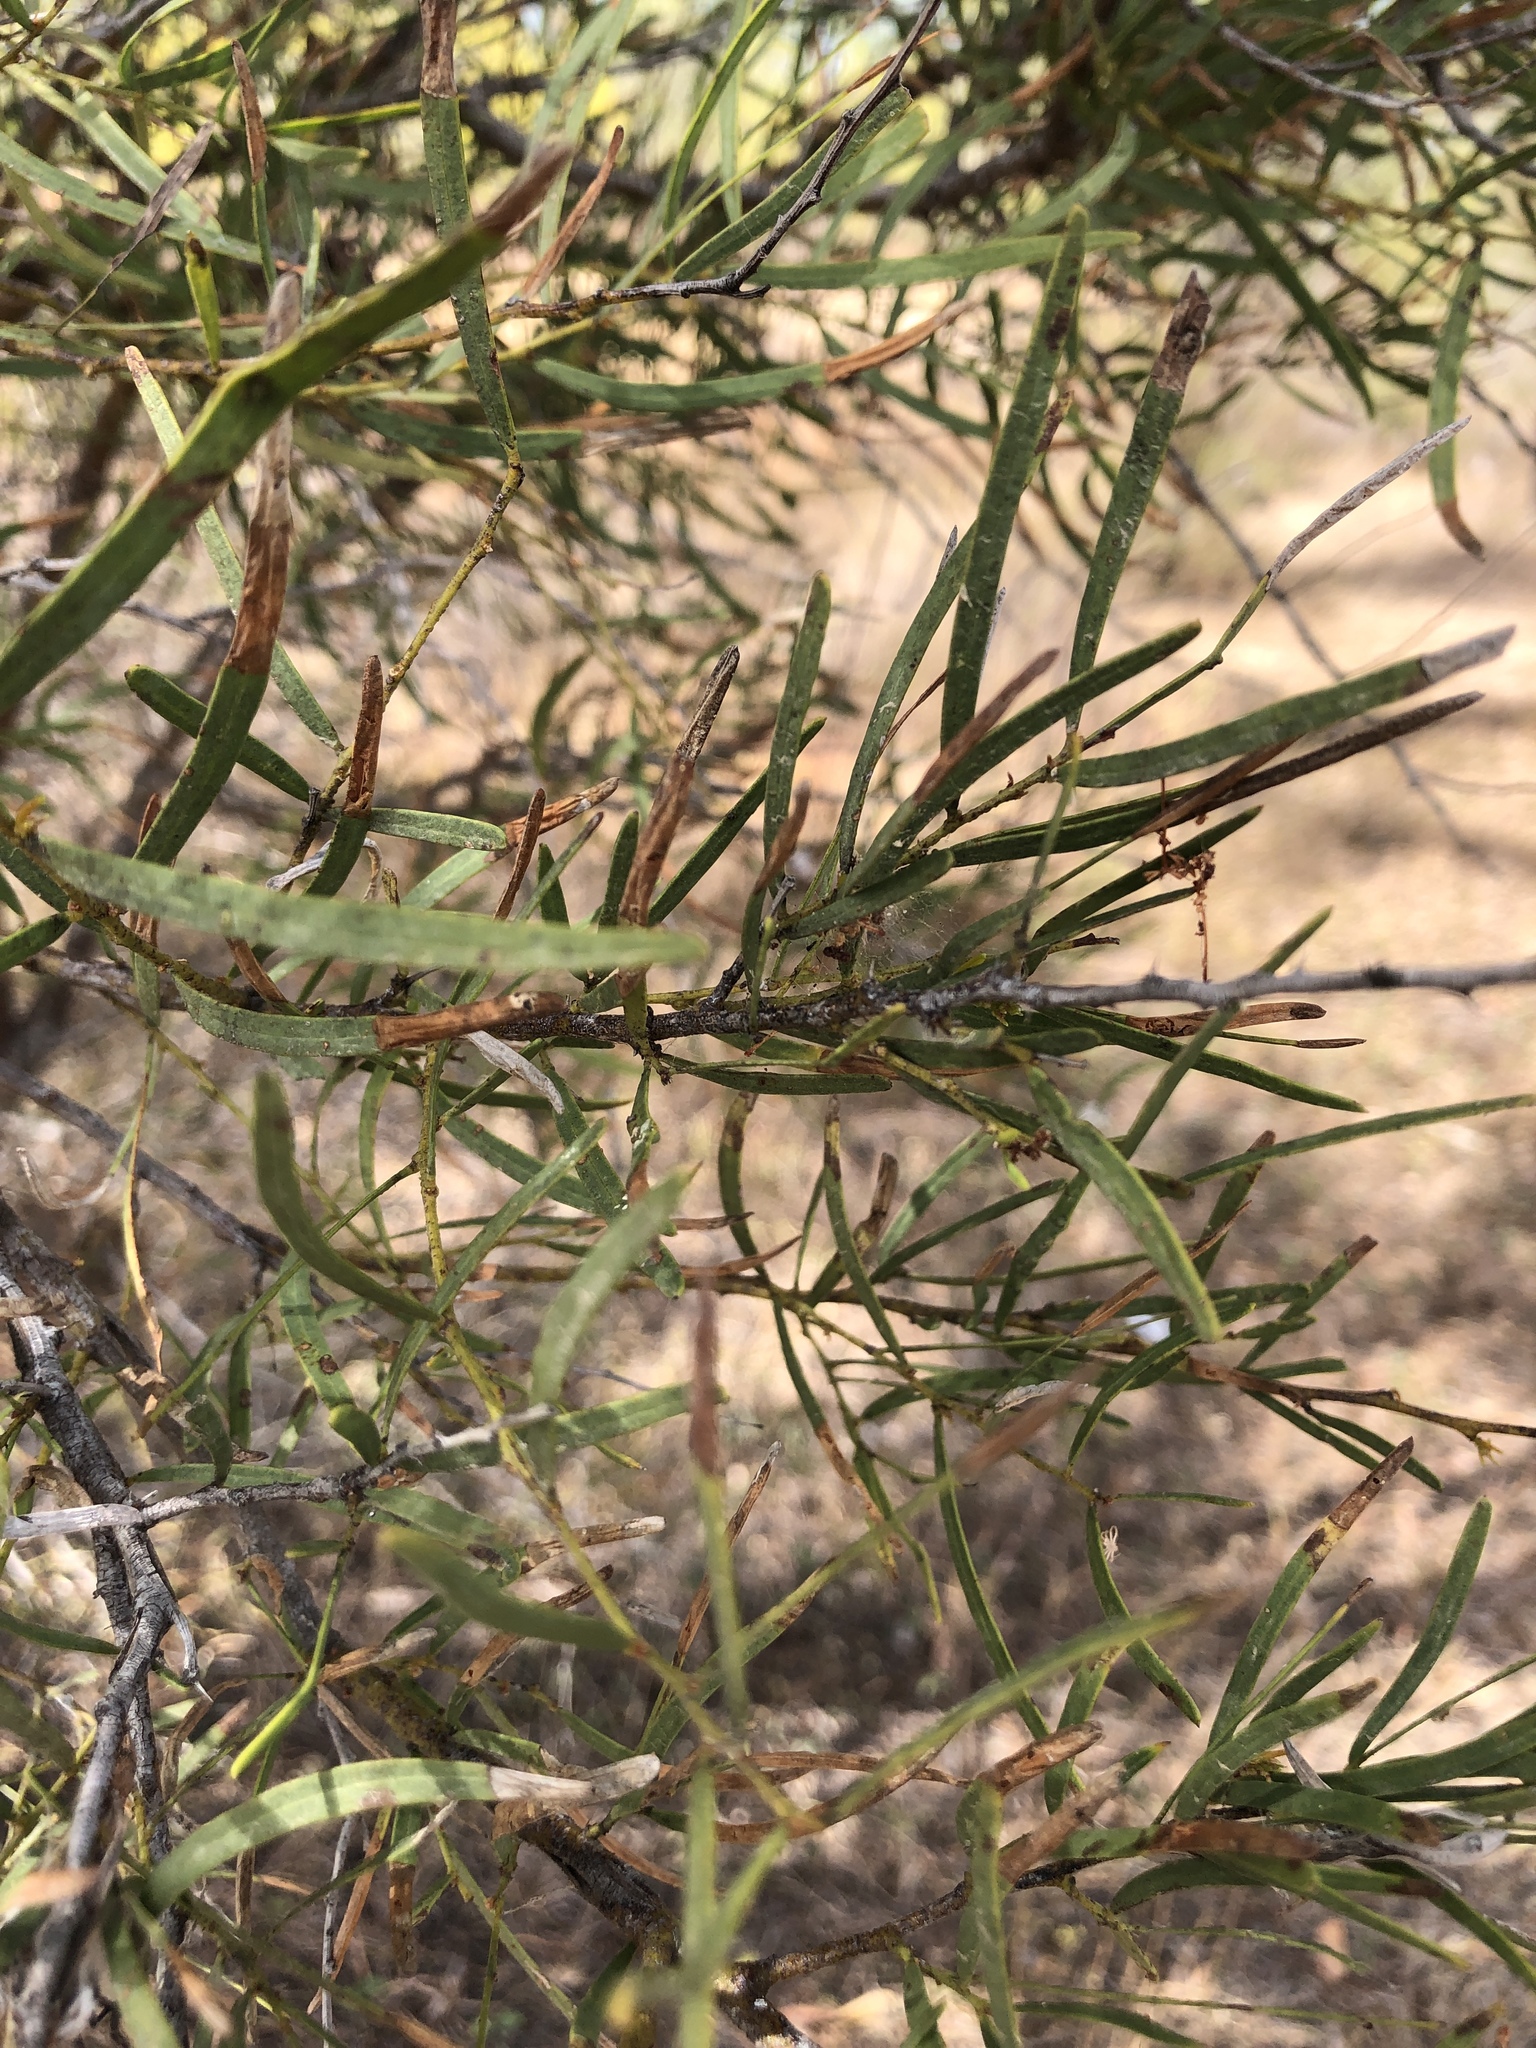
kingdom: Plantae
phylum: Tracheophyta
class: Magnoliopsida
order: Fabales
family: Fabaceae
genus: Acacia
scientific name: Acacia victoriae
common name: Bramble wattle
